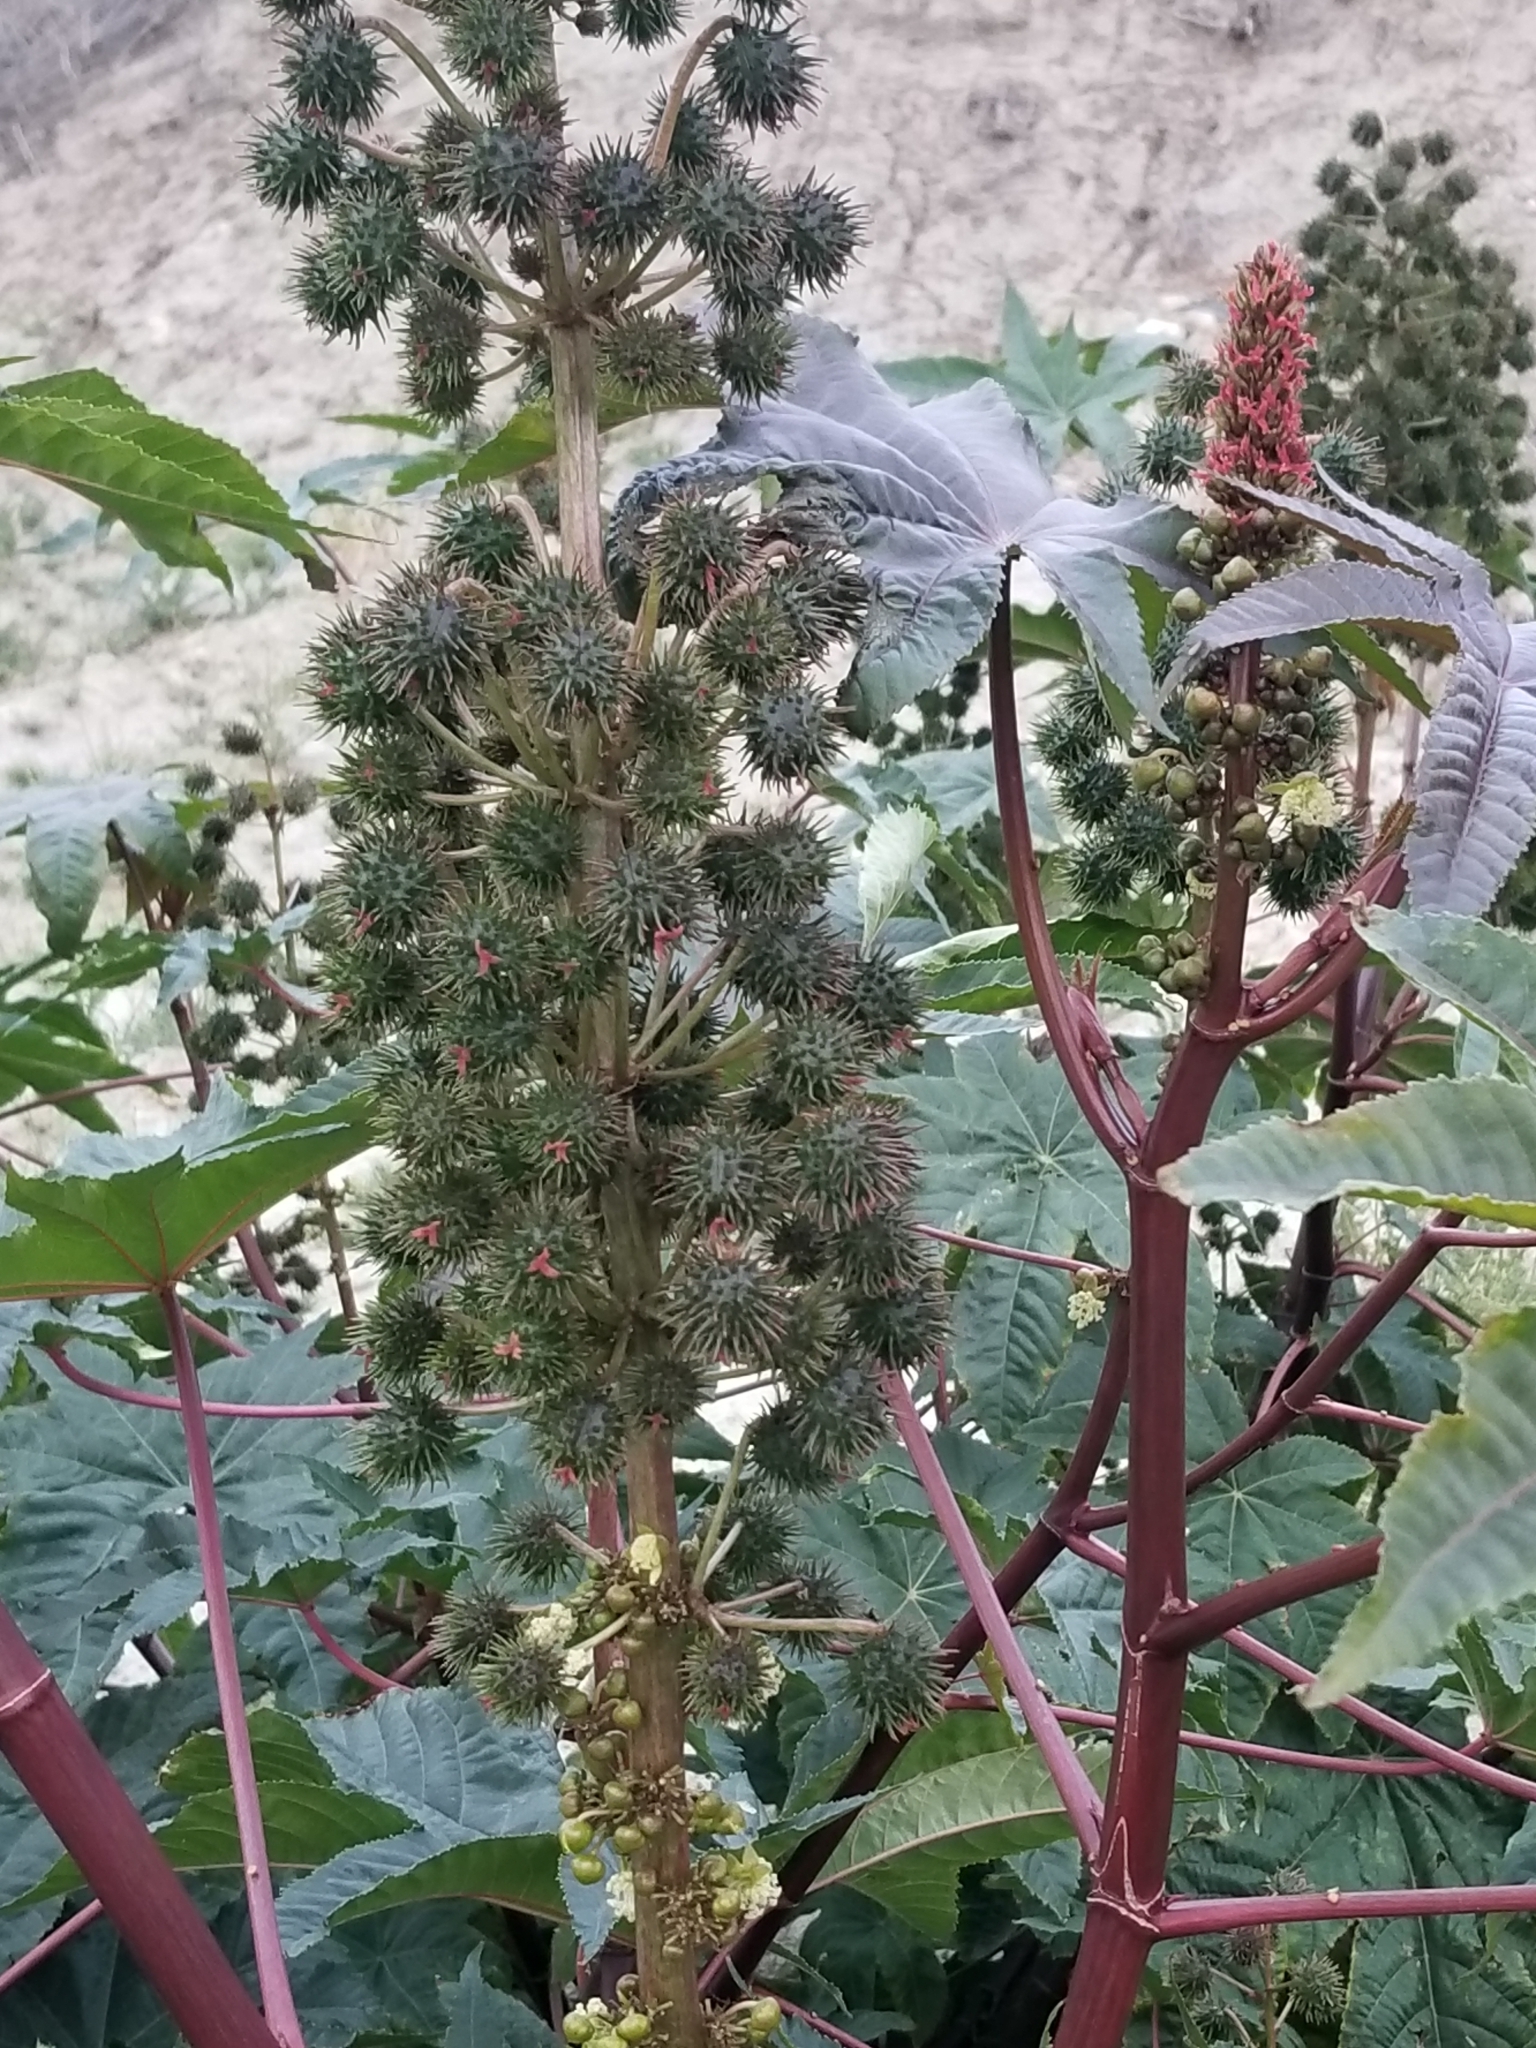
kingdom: Plantae
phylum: Tracheophyta
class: Magnoliopsida
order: Malpighiales
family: Euphorbiaceae
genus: Ricinus
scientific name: Ricinus communis
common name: Castor-oil-plant
